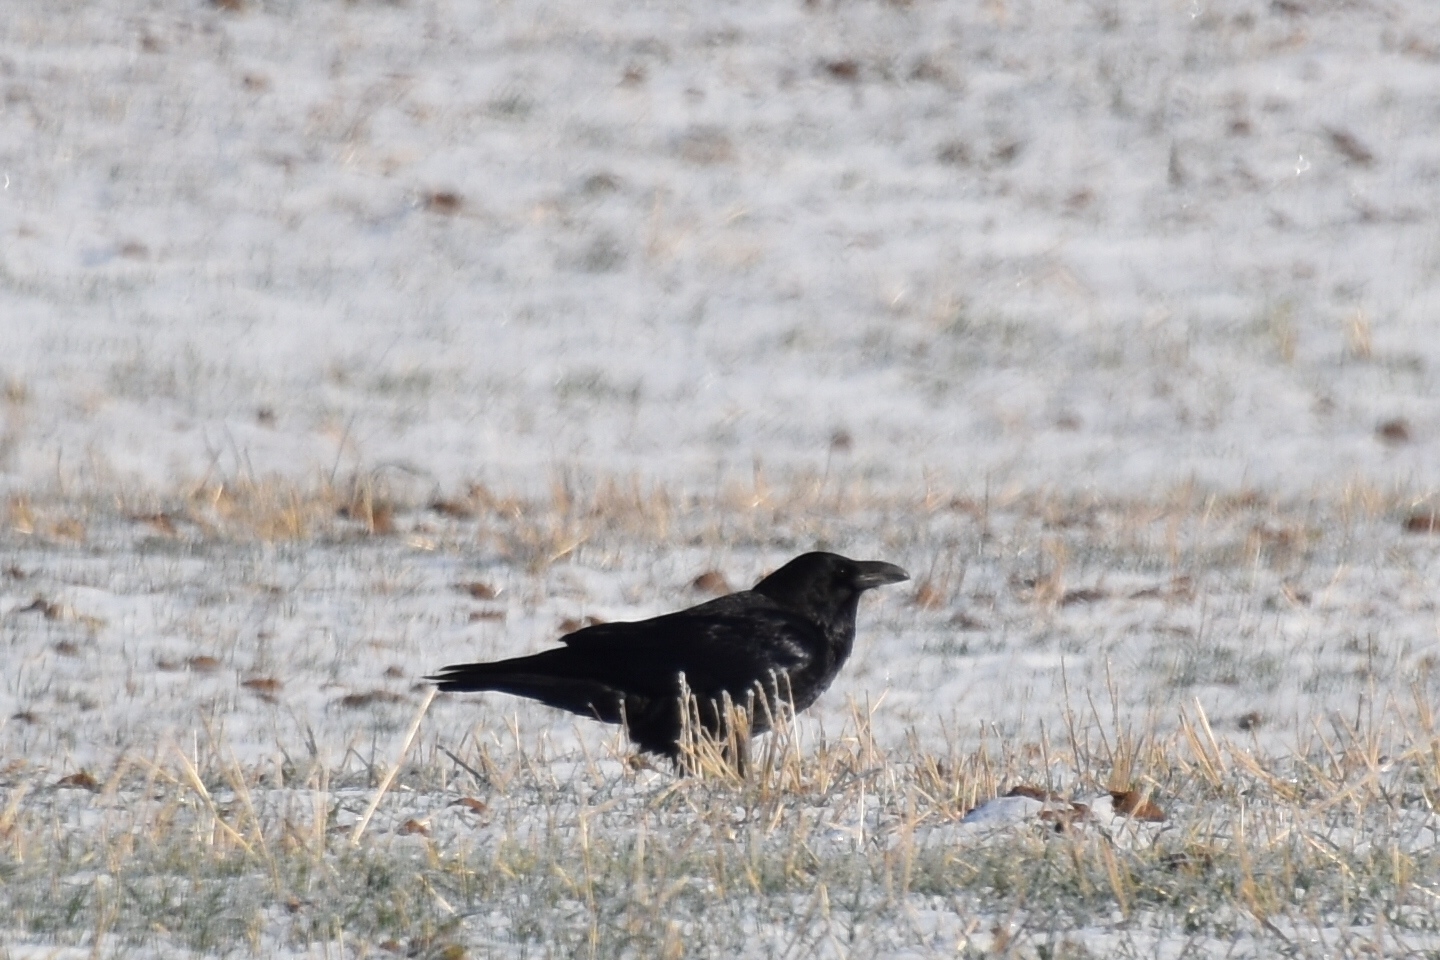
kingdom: Animalia
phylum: Chordata
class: Aves
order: Passeriformes
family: Corvidae
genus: Corvus
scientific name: Corvus corax
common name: Common raven
